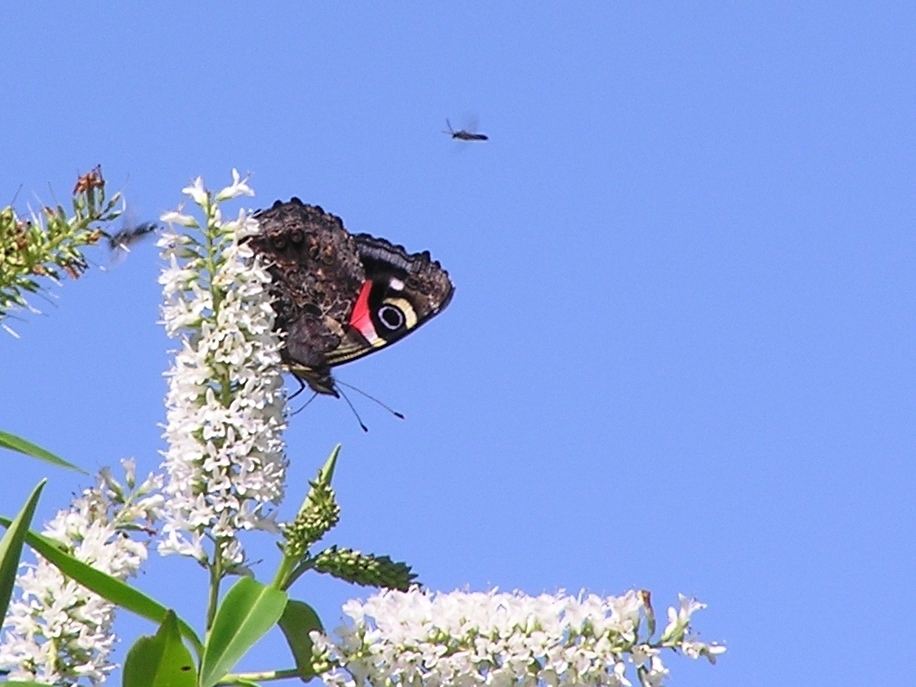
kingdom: Animalia
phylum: Arthropoda
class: Insecta
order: Lepidoptera
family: Nymphalidae
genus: Vanessa
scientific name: Vanessa gonerilla
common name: New zealand red admiral
